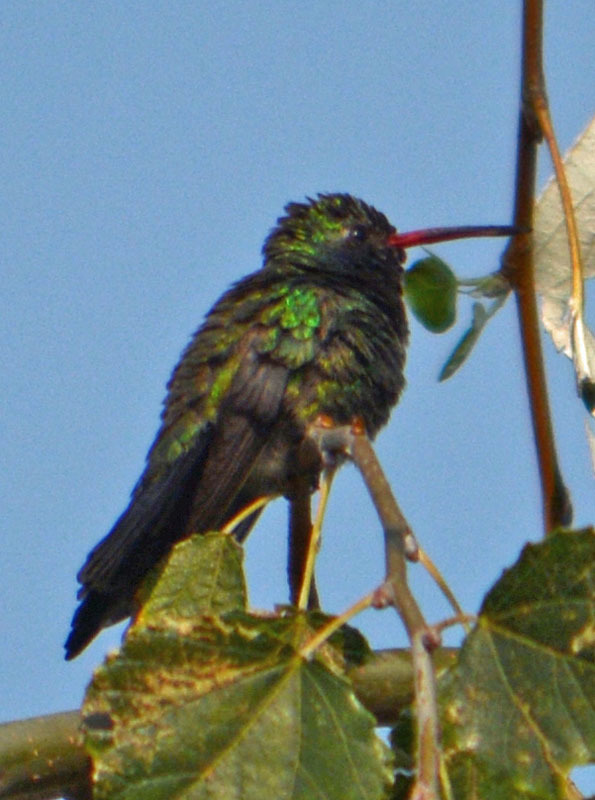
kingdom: Animalia
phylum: Chordata
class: Aves
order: Apodiformes
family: Trochilidae
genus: Cynanthus
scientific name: Cynanthus latirostris
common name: Broad-billed hummingbird
